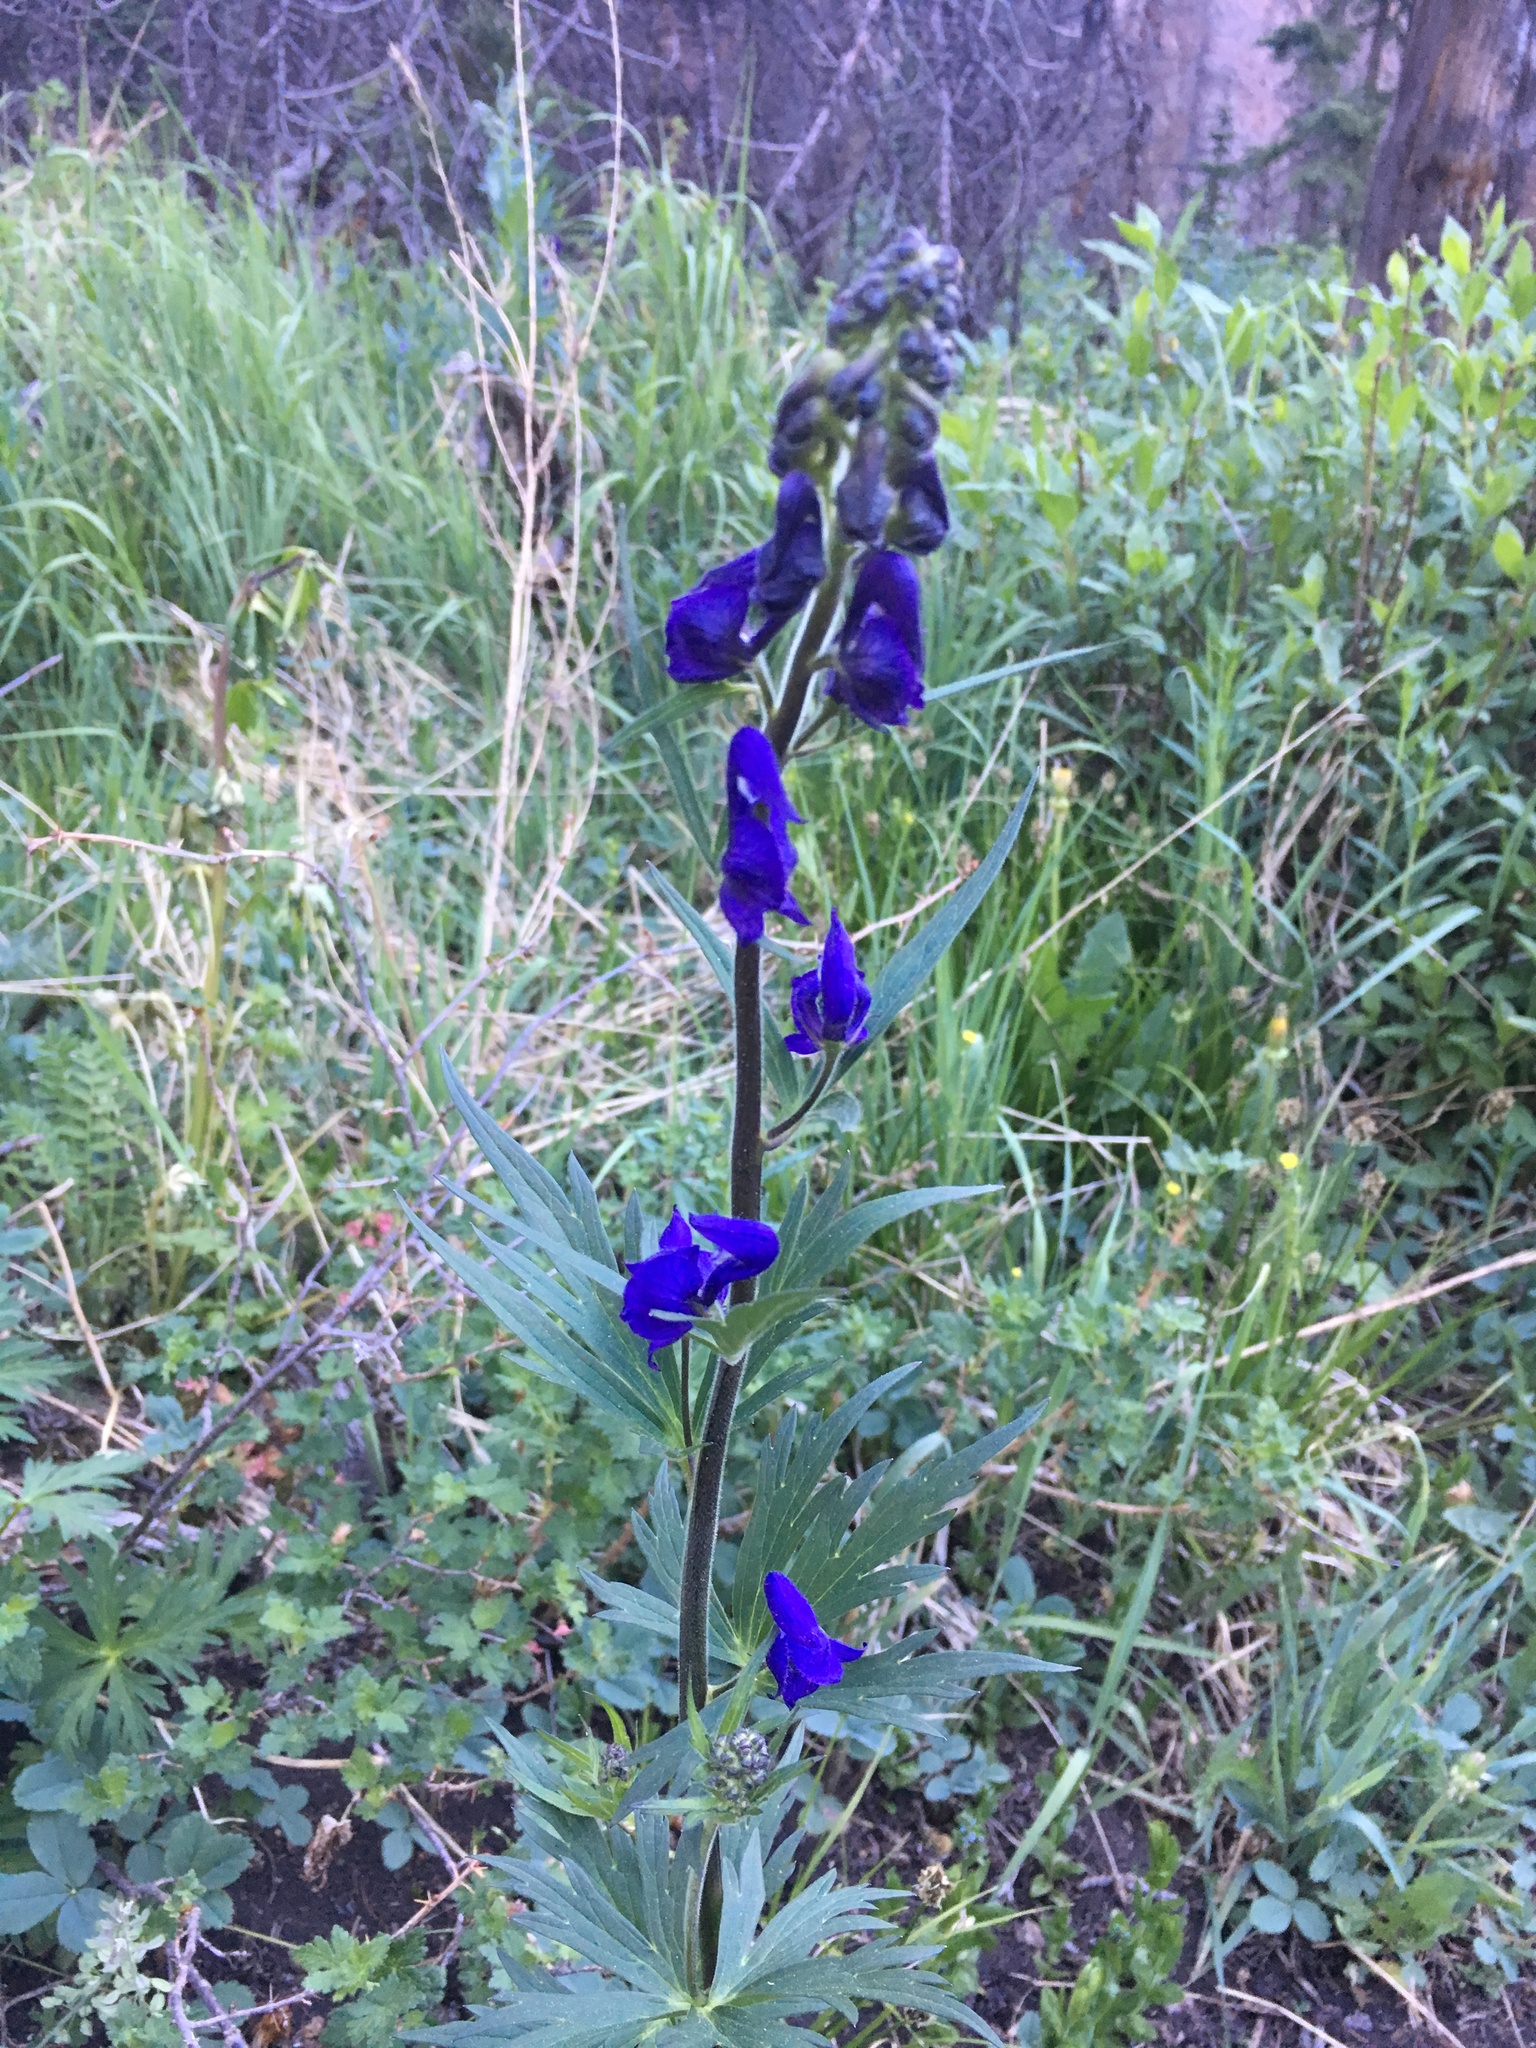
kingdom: Plantae
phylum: Tracheophyta
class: Magnoliopsida
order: Ranunculales
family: Ranunculaceae
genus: Aconitum
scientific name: Aconitum columbianum
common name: Columbia aconite
